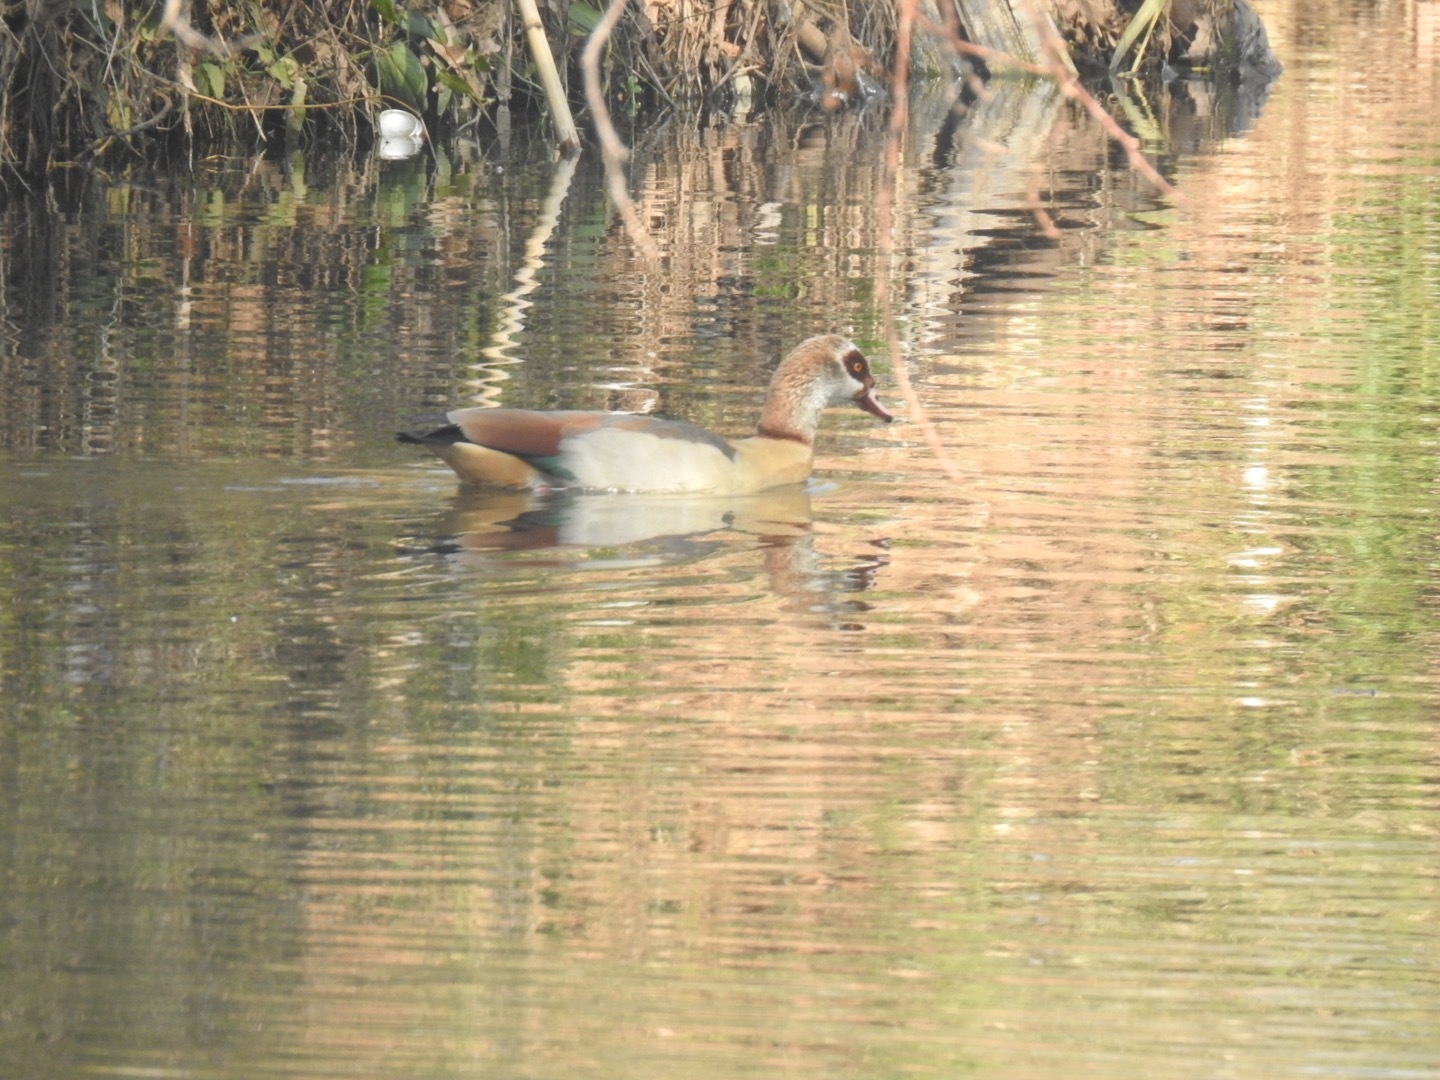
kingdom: Animalia
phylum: Chordata
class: Aves
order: Anseriformes
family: Anatidae
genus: Alopochen
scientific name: Alopochen aegyptiaca
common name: Egyptian goose
